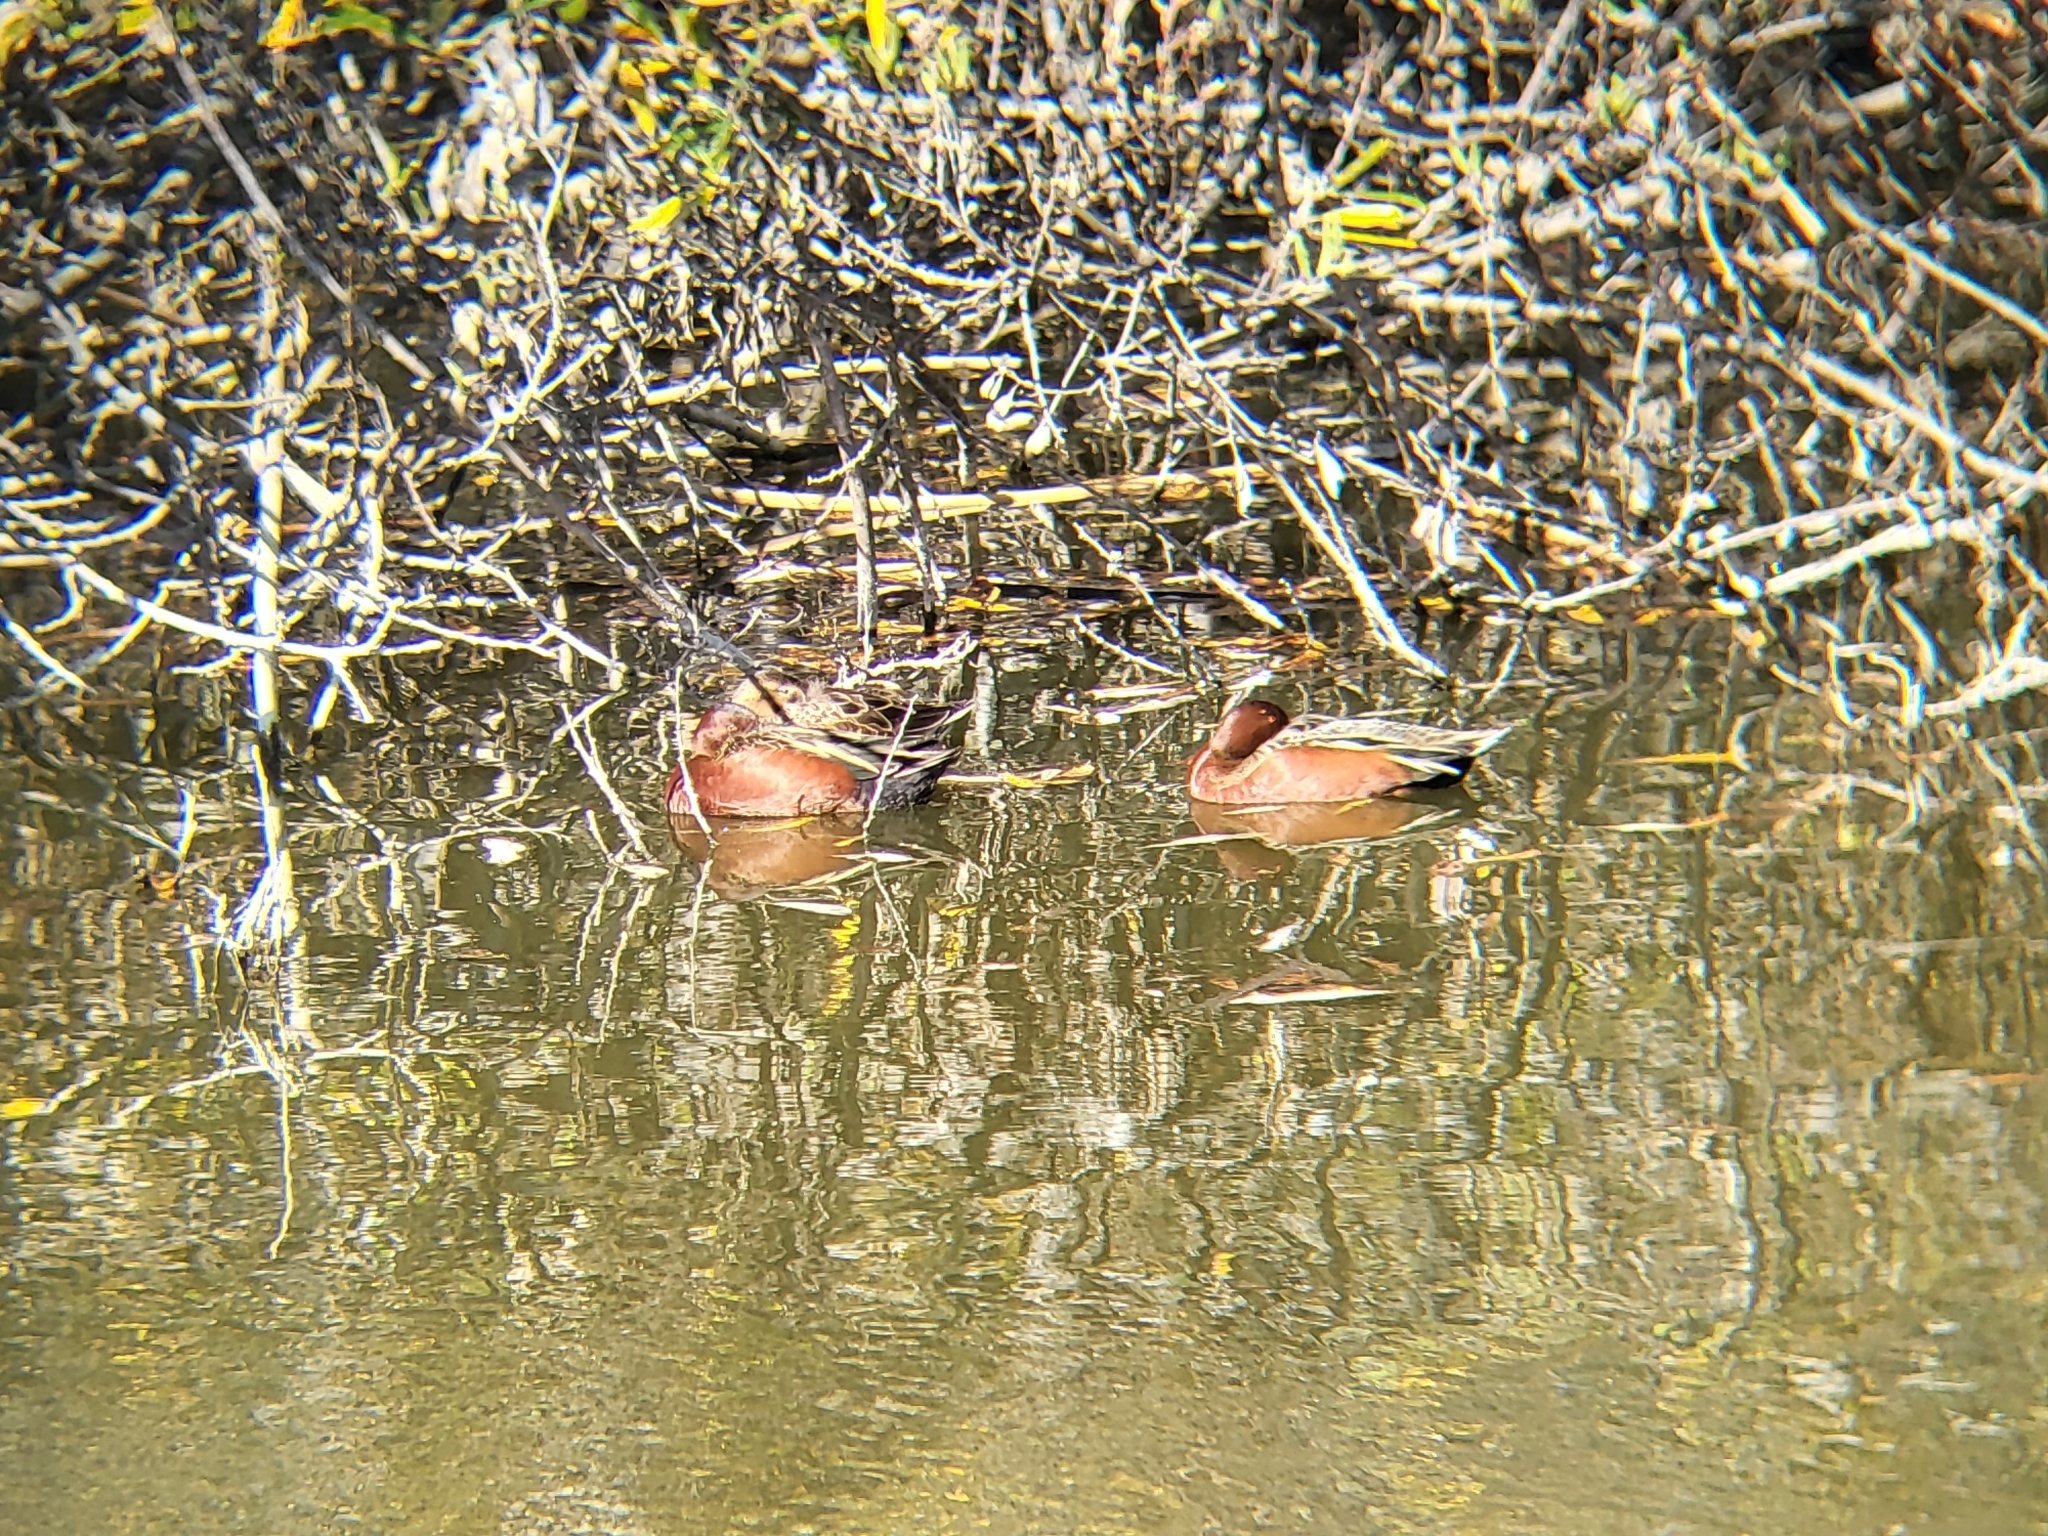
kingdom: Animalia
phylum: Chordata
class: Aves
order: Anseriformes
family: Anatidae
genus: Spatula
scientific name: Spatula cyanoptera
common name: Cinnamon teal
